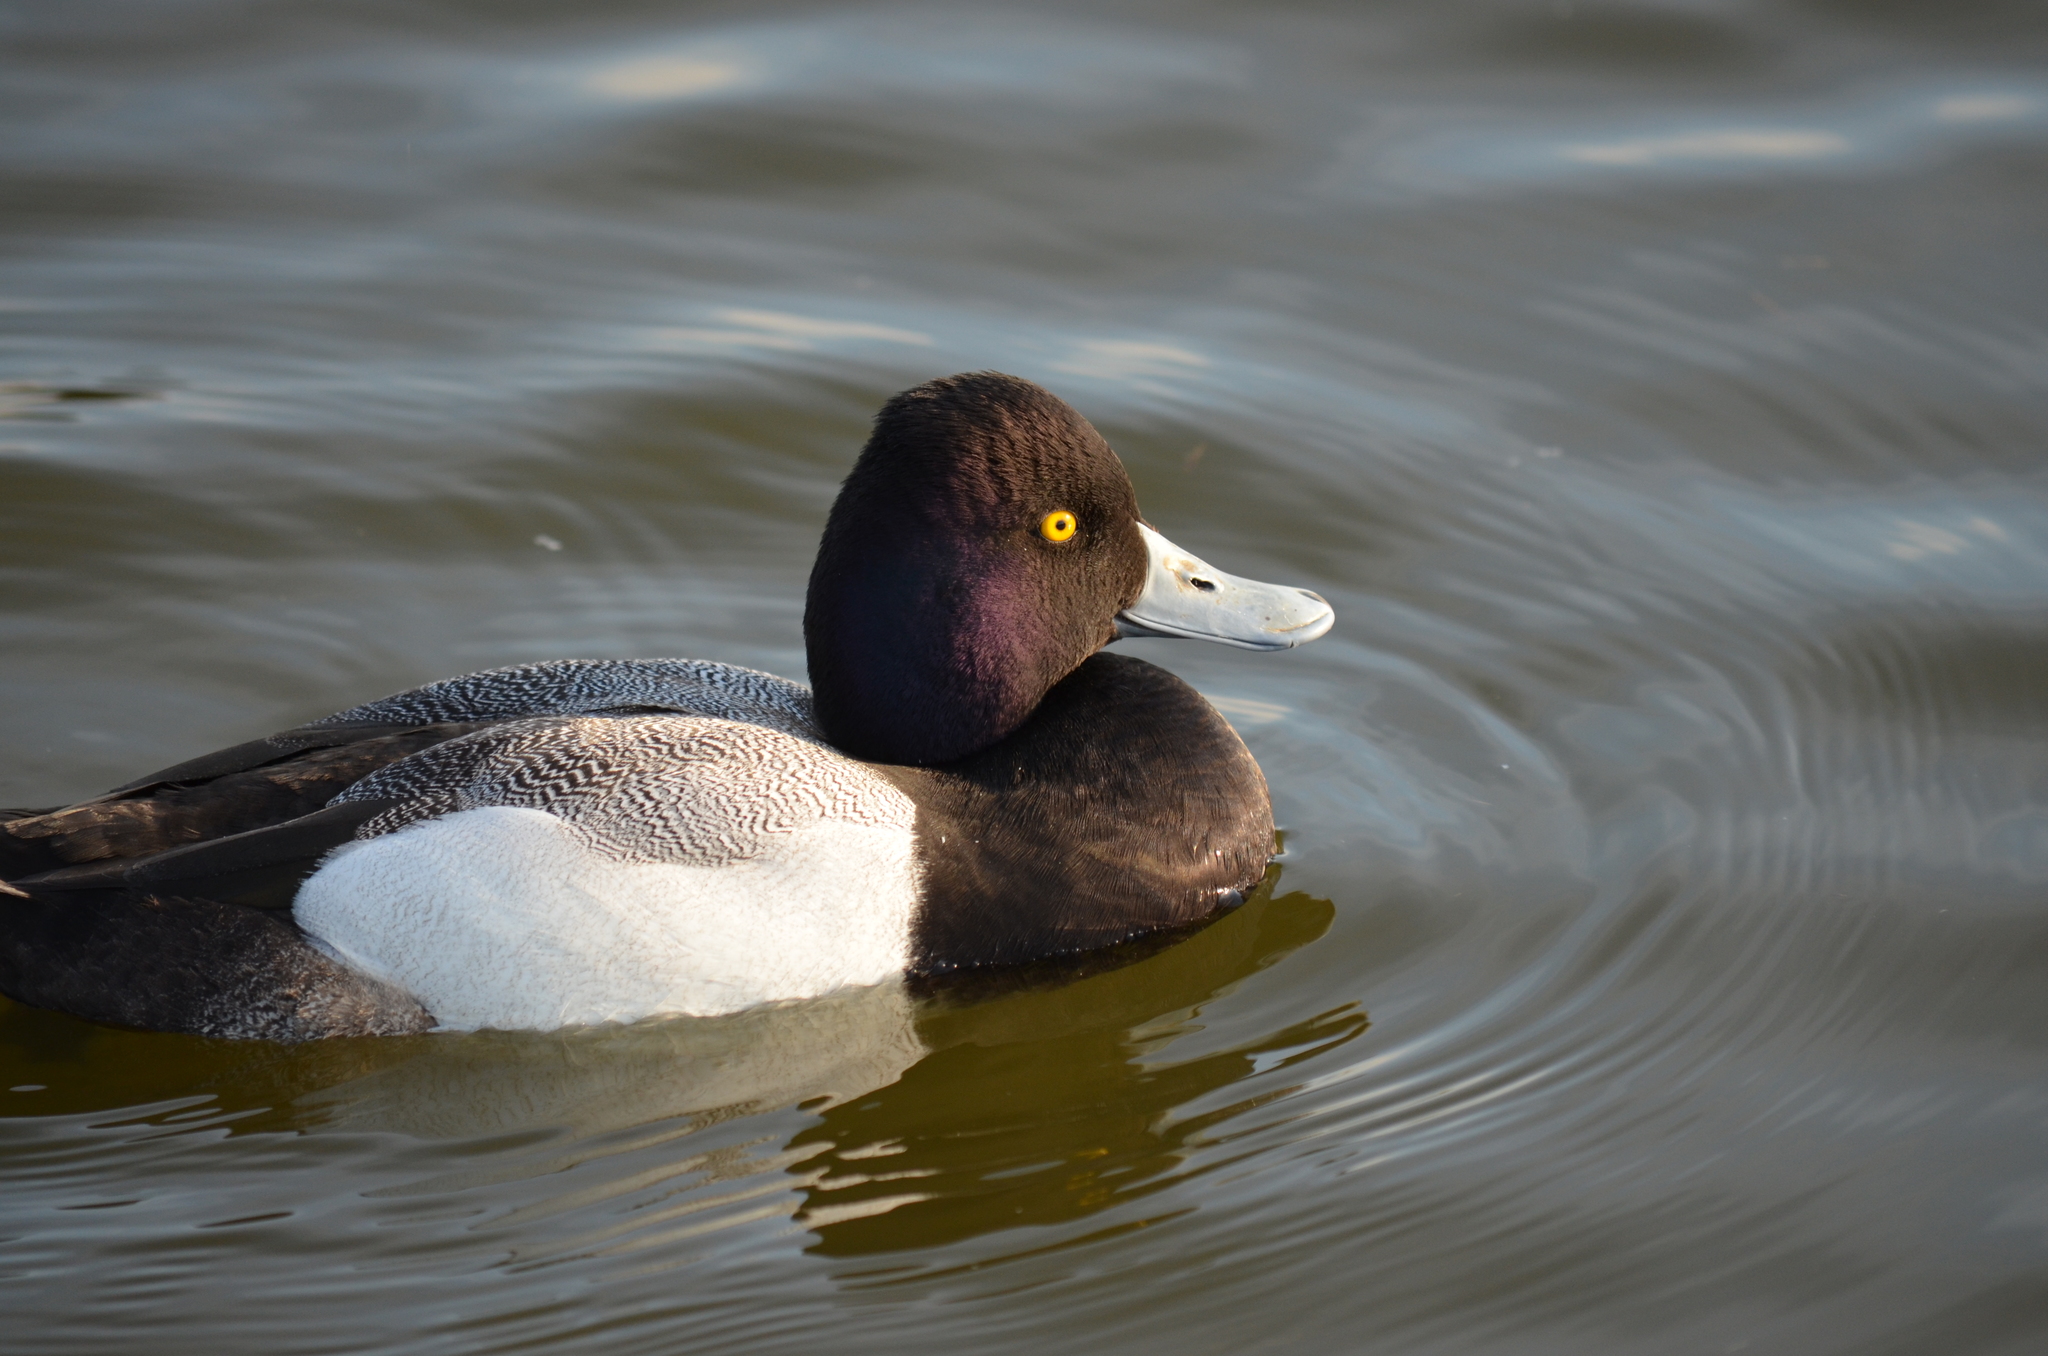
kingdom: Animalia
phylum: Chordata
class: Aves
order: Anseriformes
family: Anatidae
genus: Aythya
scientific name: Aythya affinis
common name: Lesser scaup
